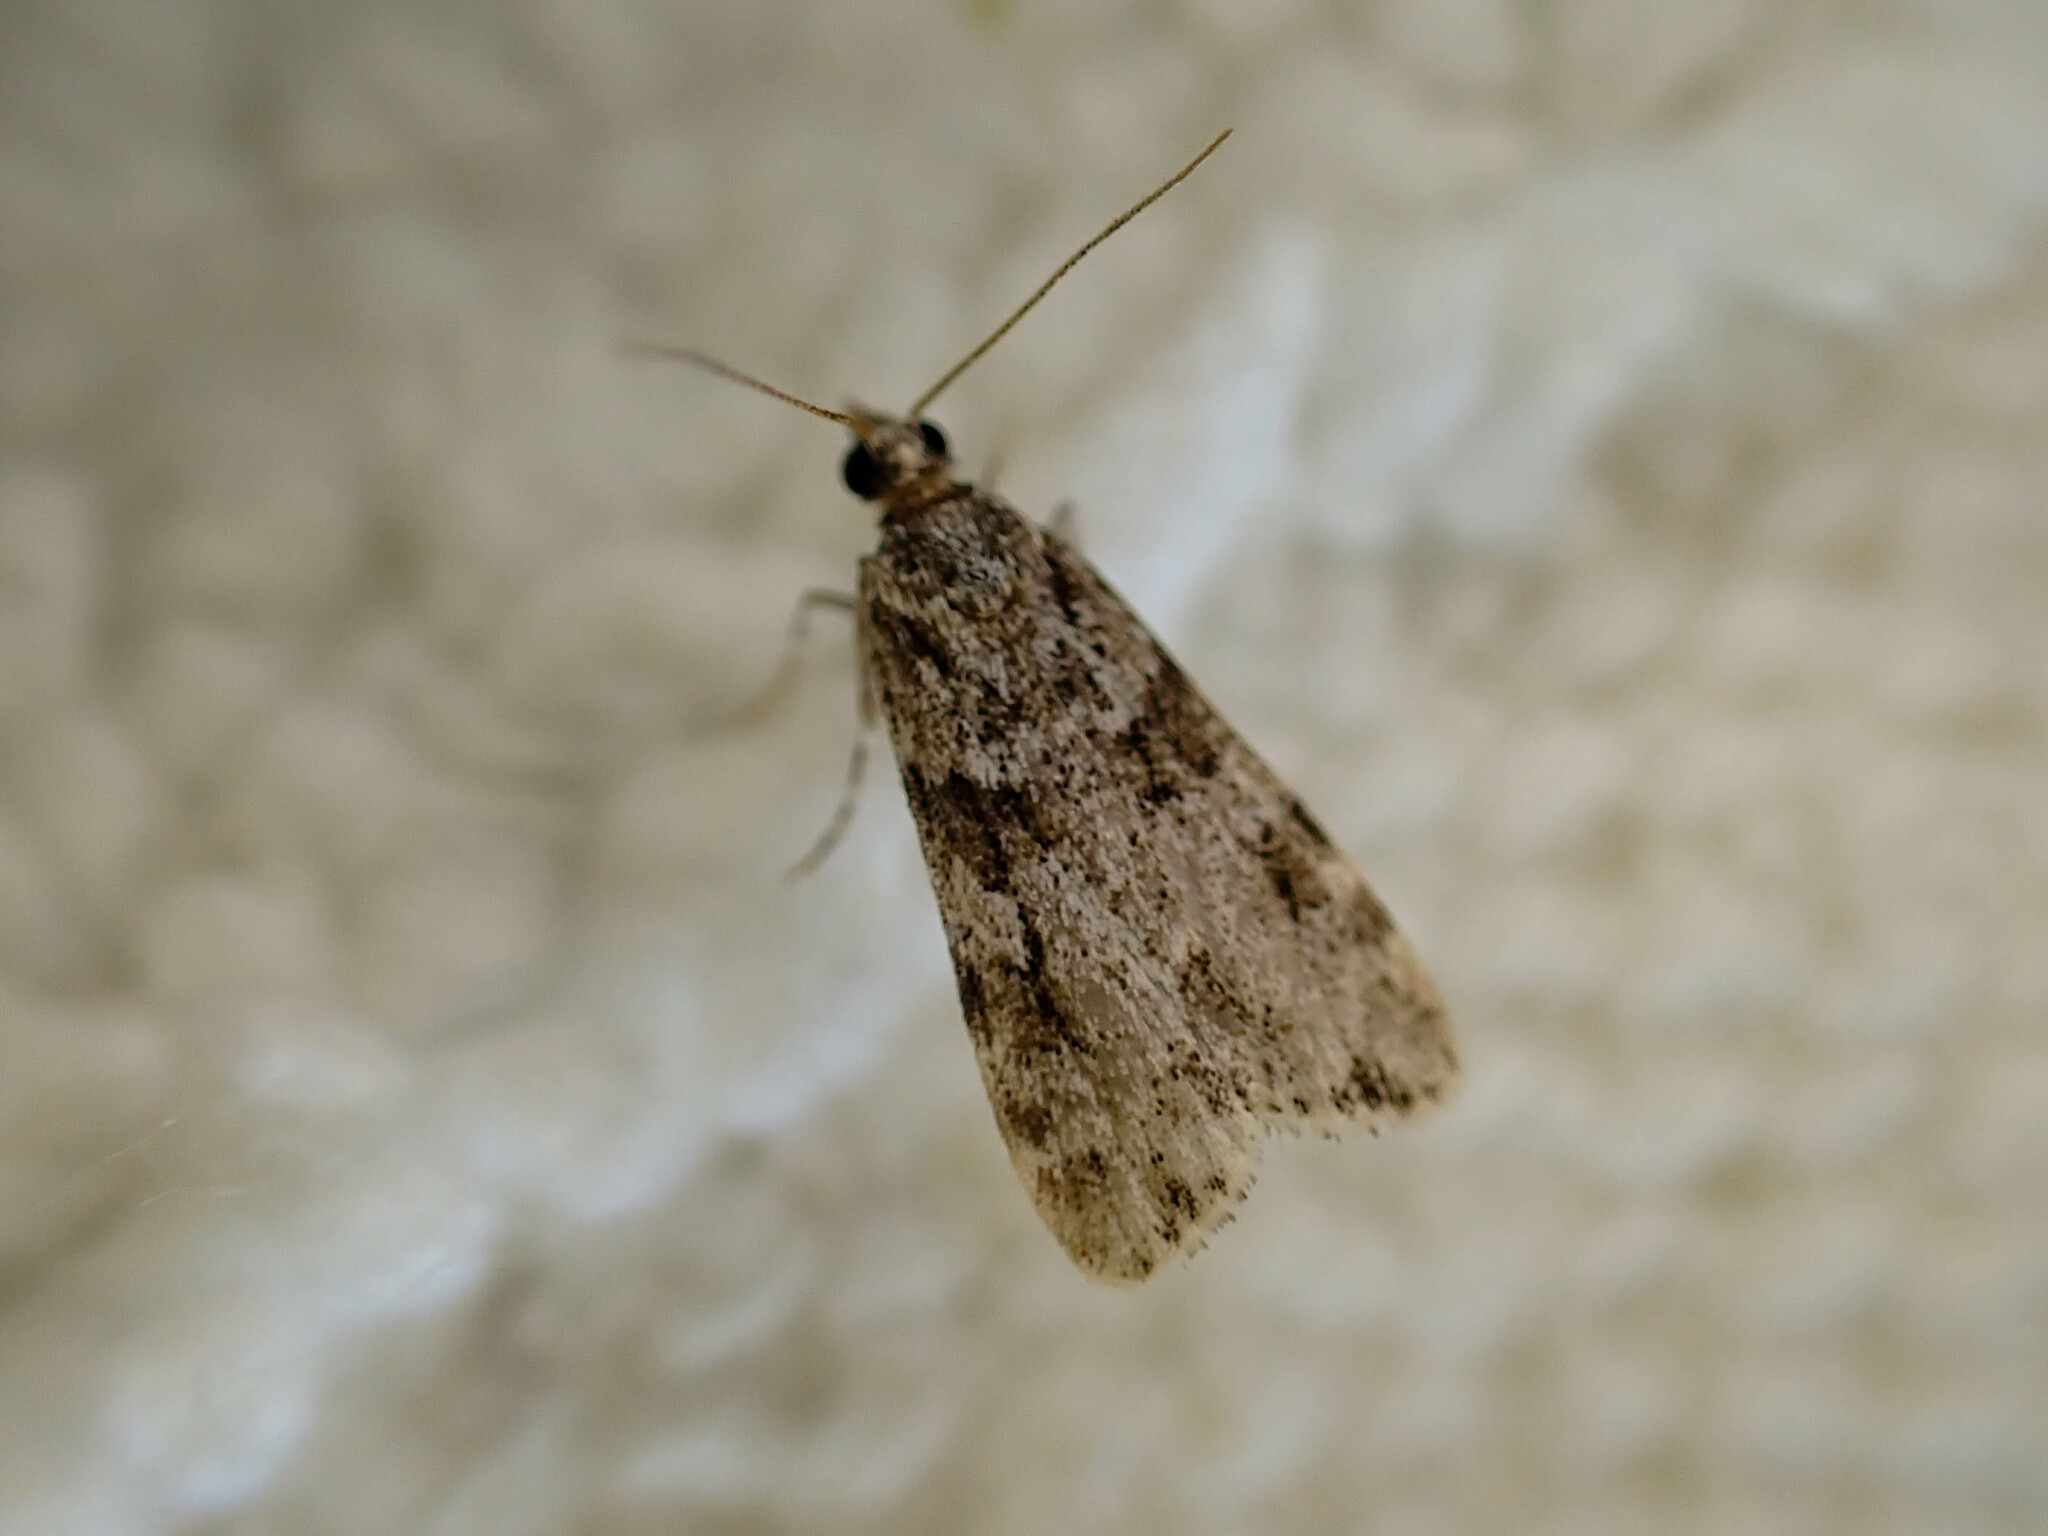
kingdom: Animalia
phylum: Arthropoda
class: Insecta
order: Lepidoptera
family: Crambidae
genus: Scoparia
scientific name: Scoparia biplagialis
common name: Double-striped scoparia moth
